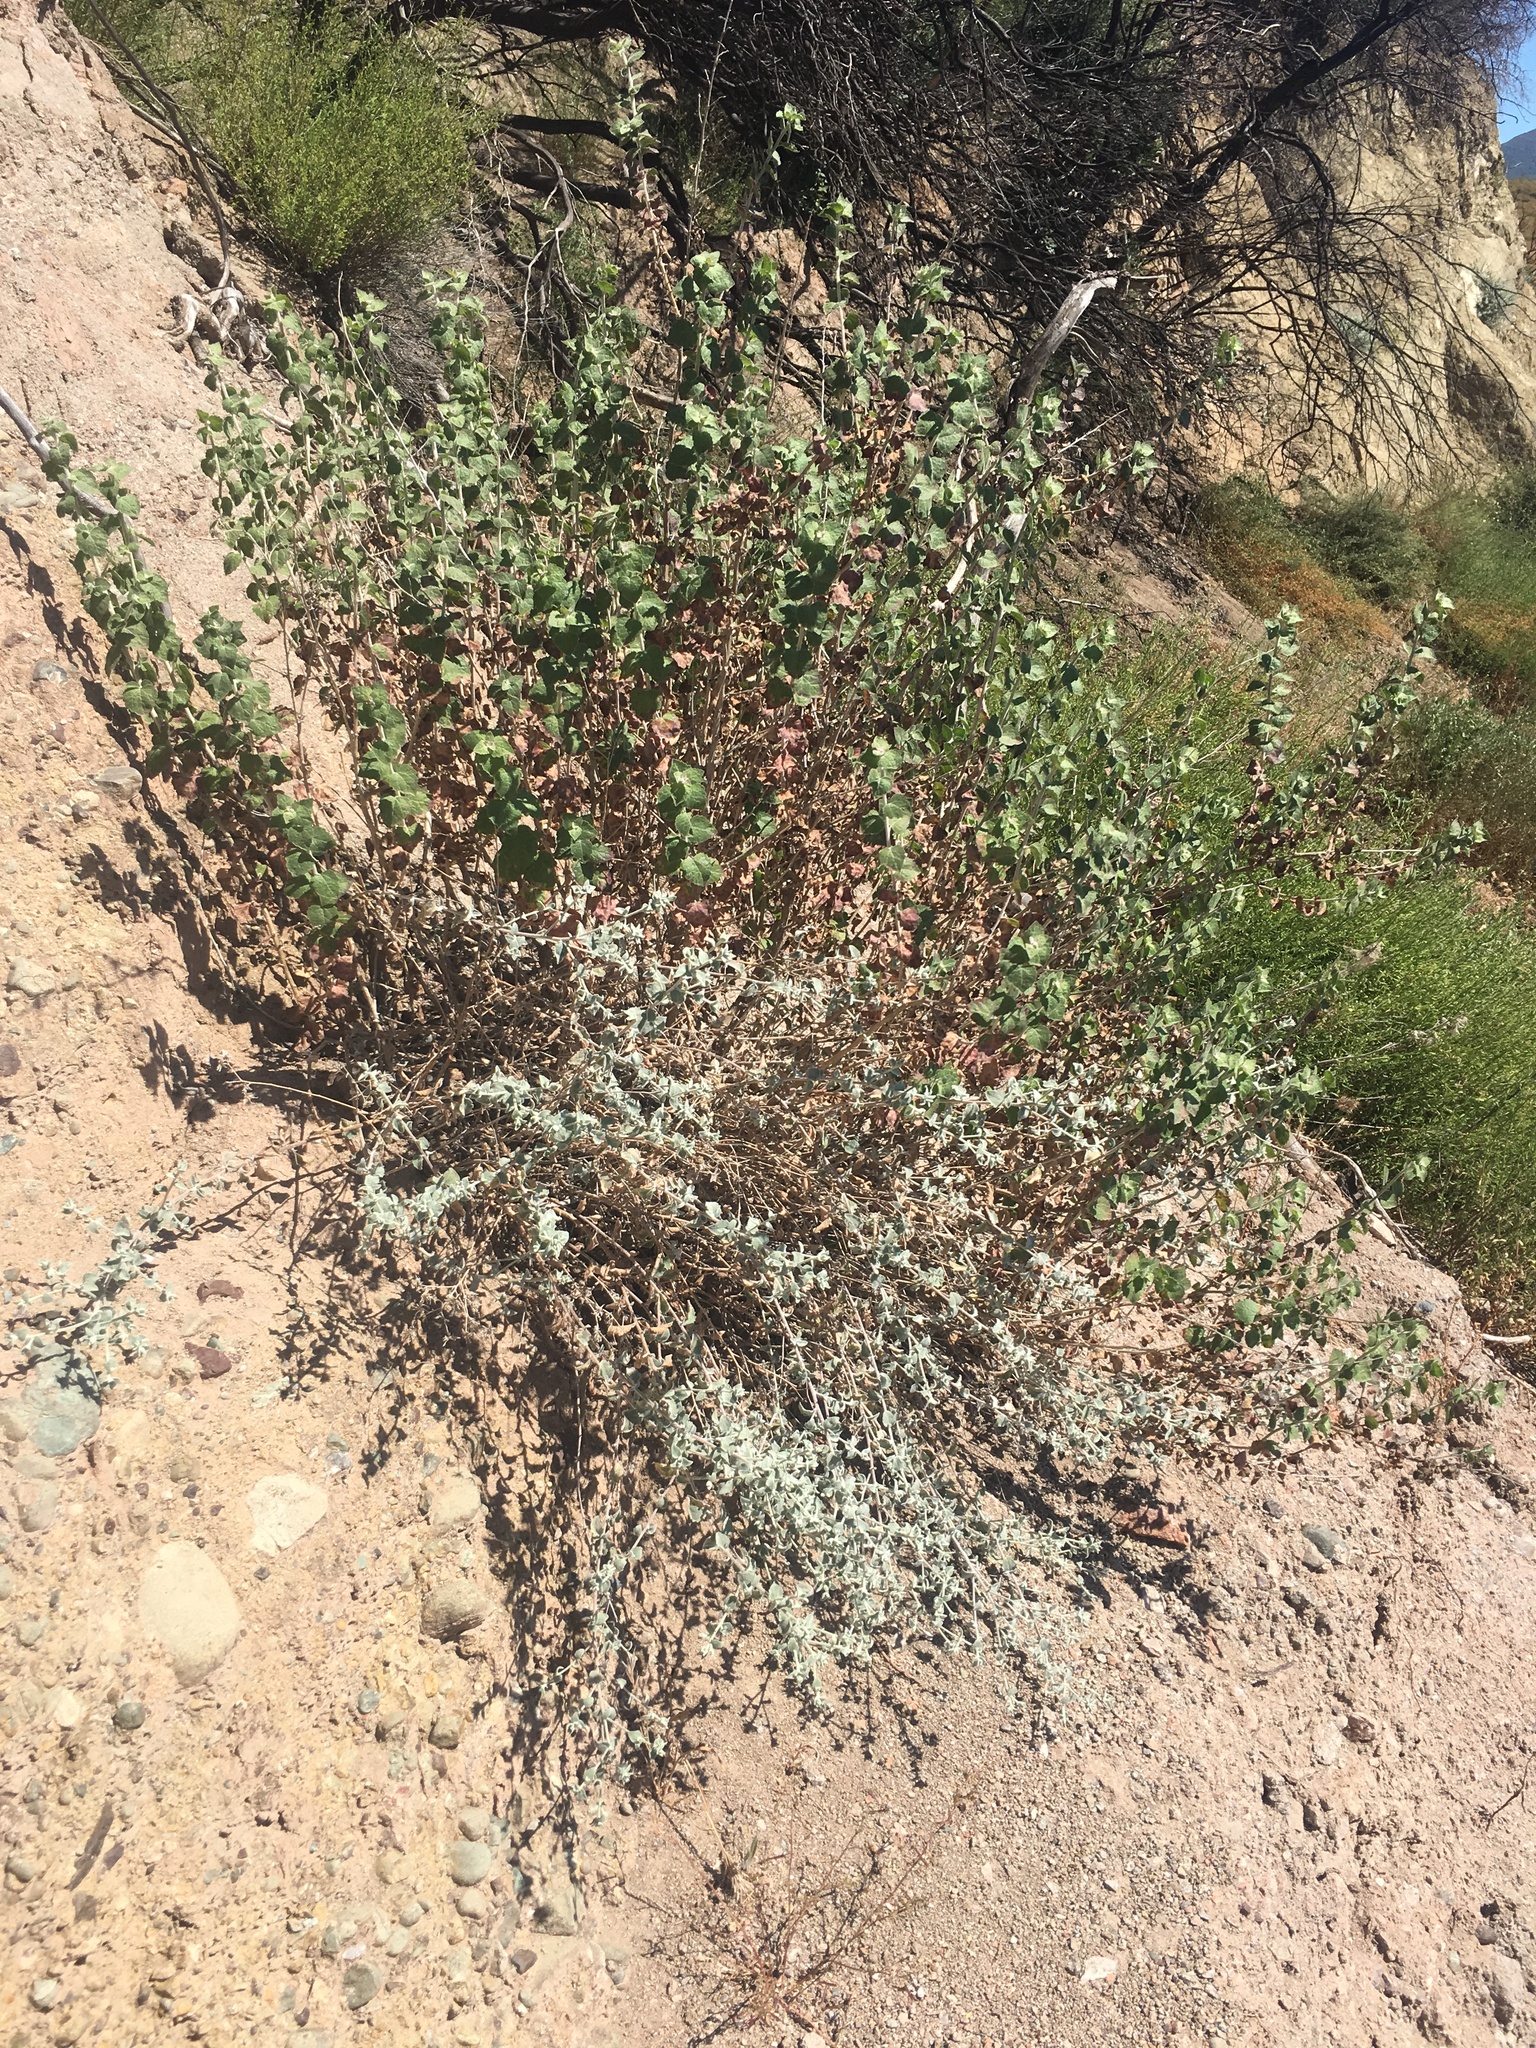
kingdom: Plantae
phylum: Tracheophyta
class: Magnoliopsida
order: Asterales
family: Asteraceae
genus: Brickellia
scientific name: Brickellia californica
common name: California brickellbush
